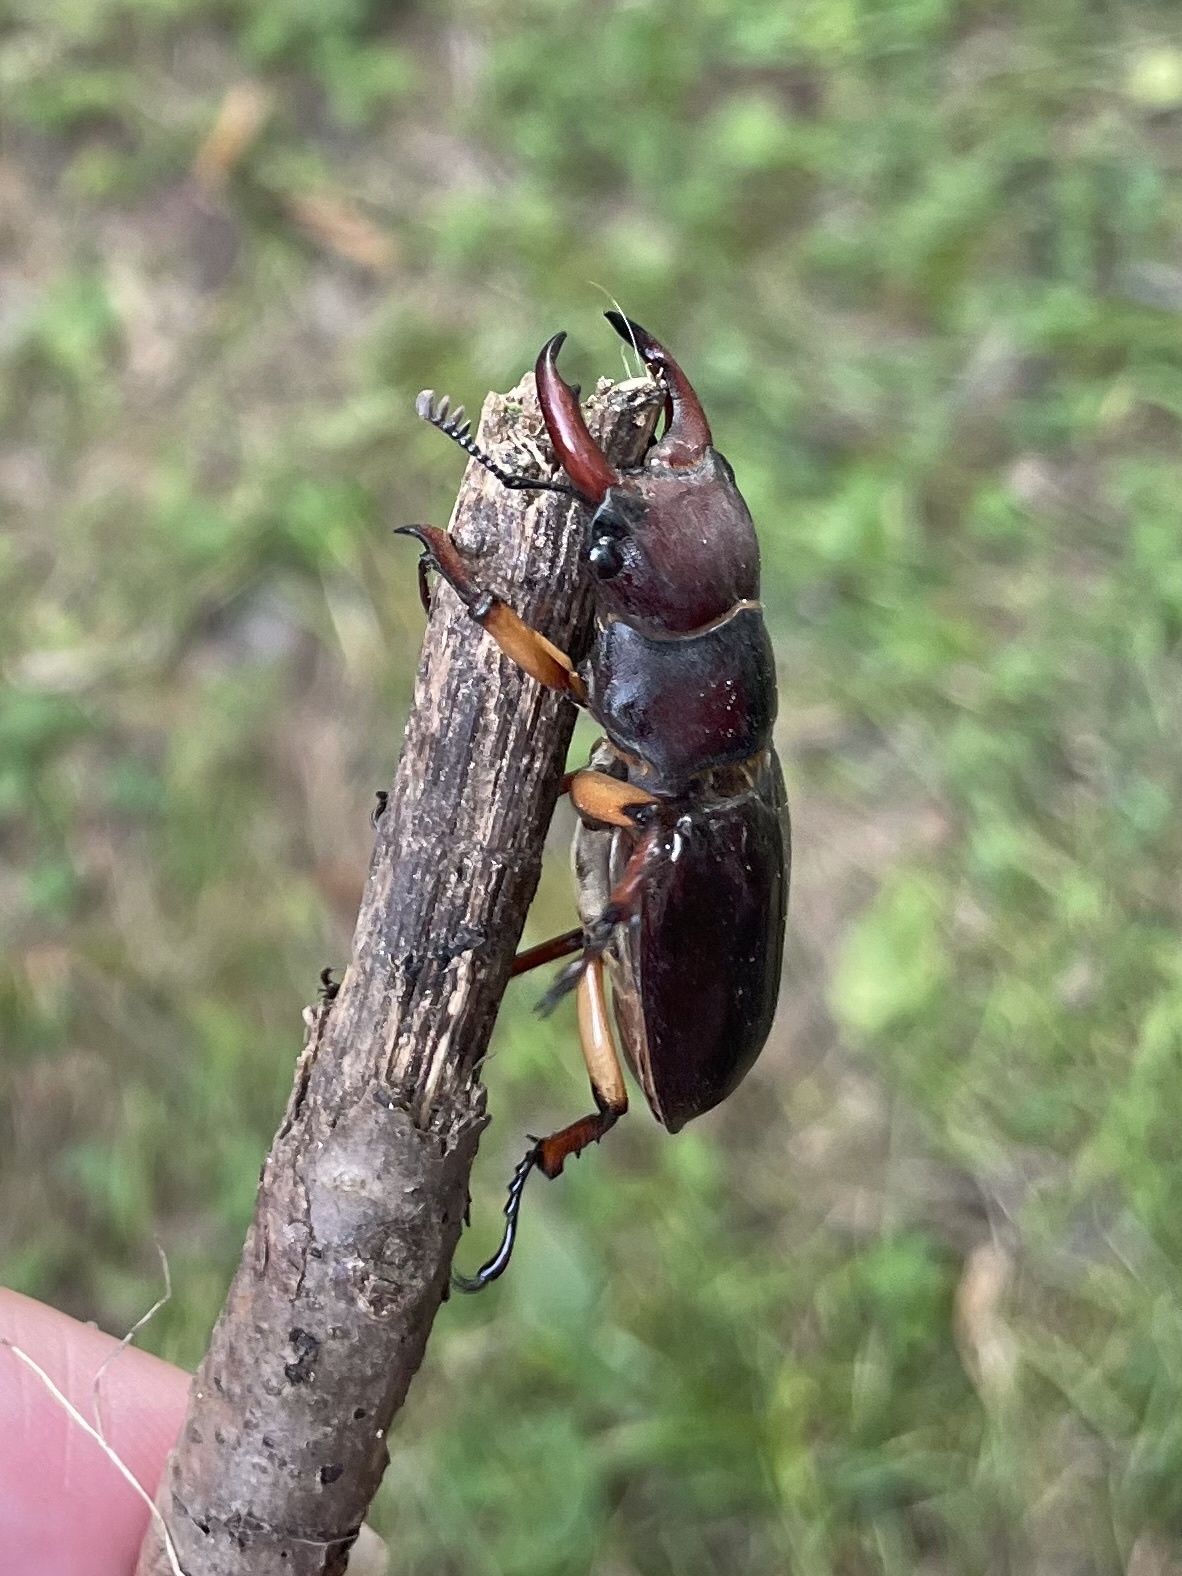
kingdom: Animalia
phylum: Arthropoda
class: Insecta
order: Coleoptera
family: Lucanidae
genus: Lucanus
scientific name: Lucanus capreolus
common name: Stag beetle
